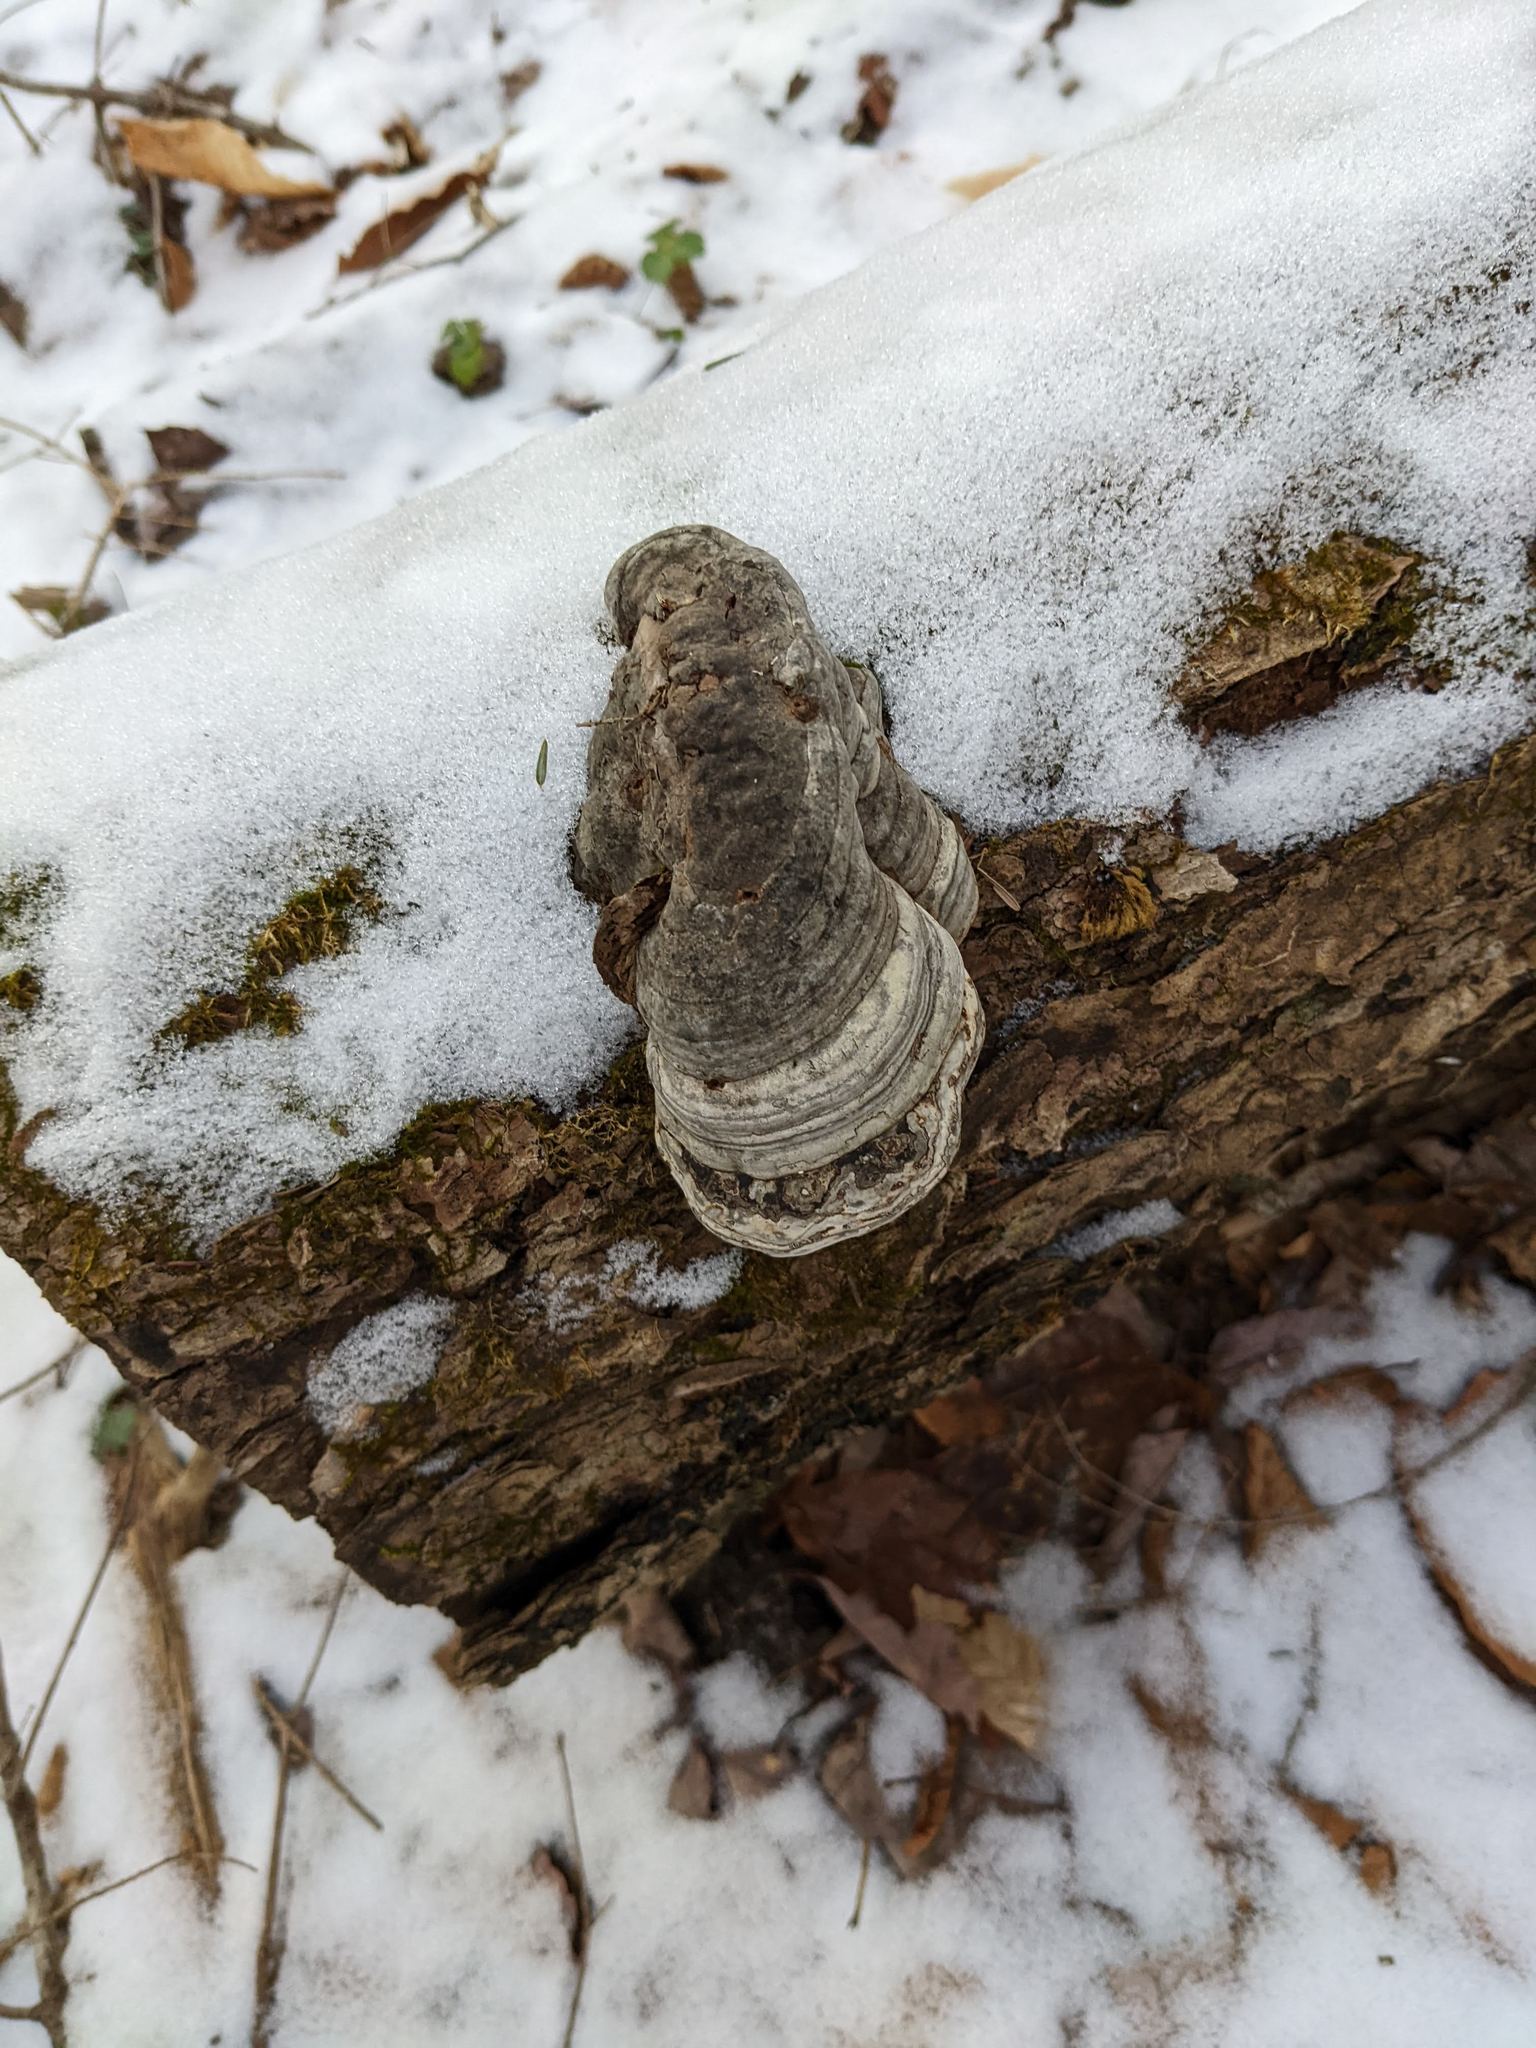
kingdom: Fungi
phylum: Basidiomycota
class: Agaricomycetes
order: Polyporales
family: Polyporaceae
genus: Fomes
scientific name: Fomes fomentarius
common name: Hoof fungus
